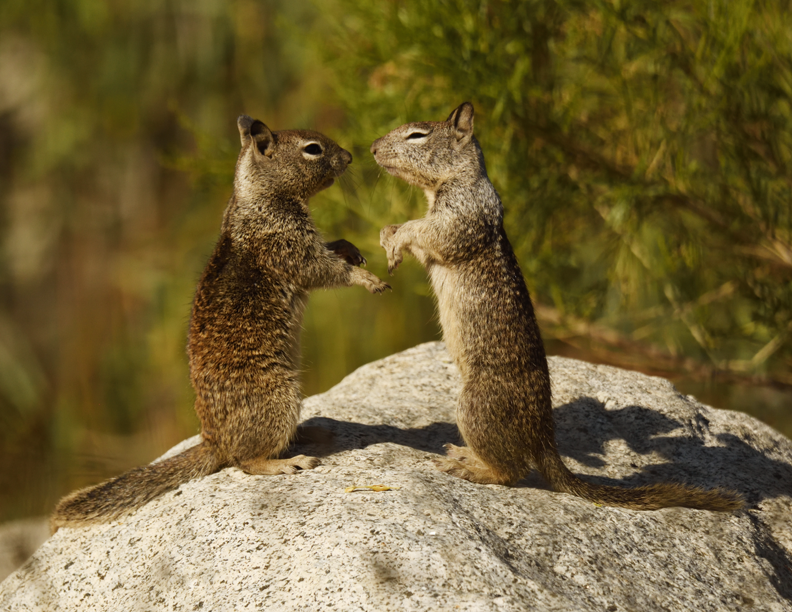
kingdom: Animalia
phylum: Chordata
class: Mammalia
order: Rodentia
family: Sciuridae
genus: Otospermophilus
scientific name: Otospermophilus beecheyi
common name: California ground squirrel
